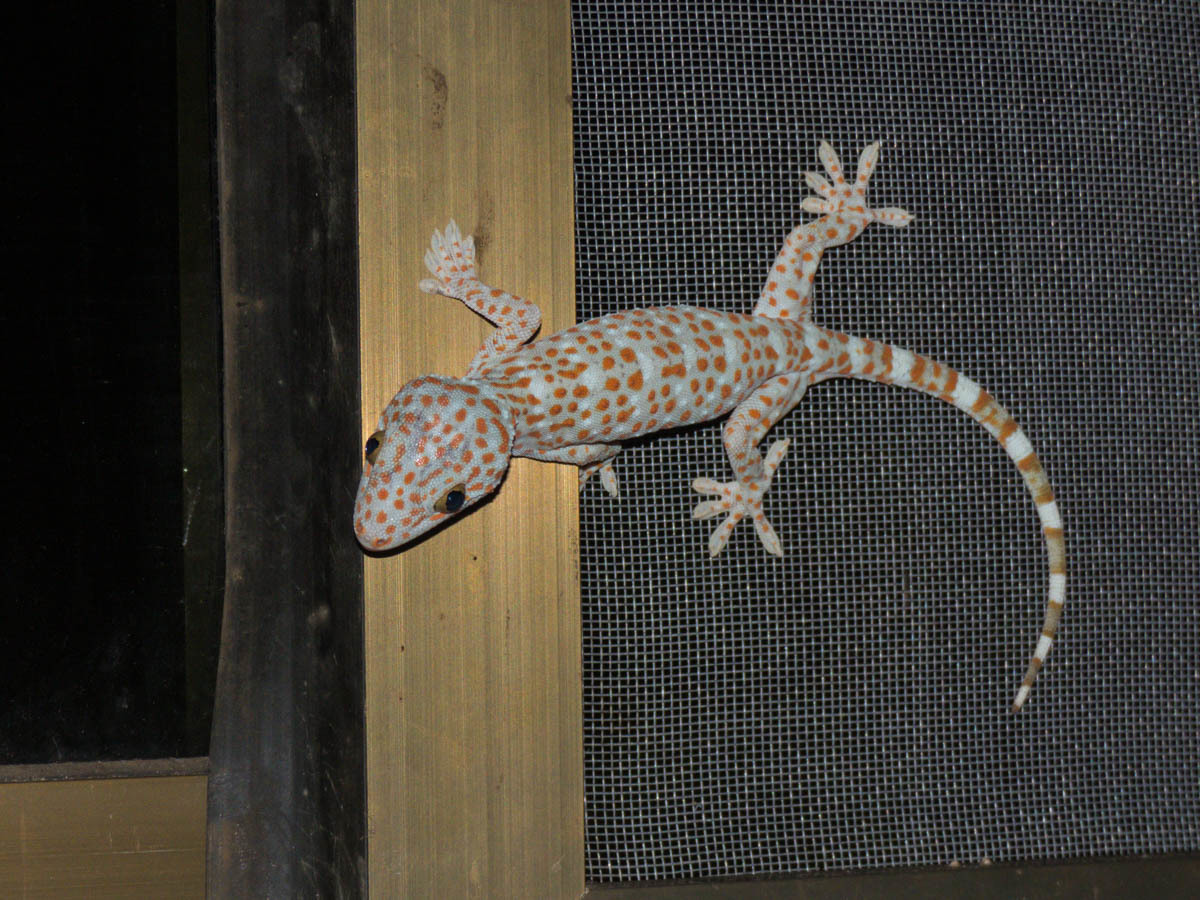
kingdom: Animalia
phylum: Chordata
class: Squamata
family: Gekkonidae
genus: Gekko
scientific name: Gekko gecko
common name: Tokay gecko
